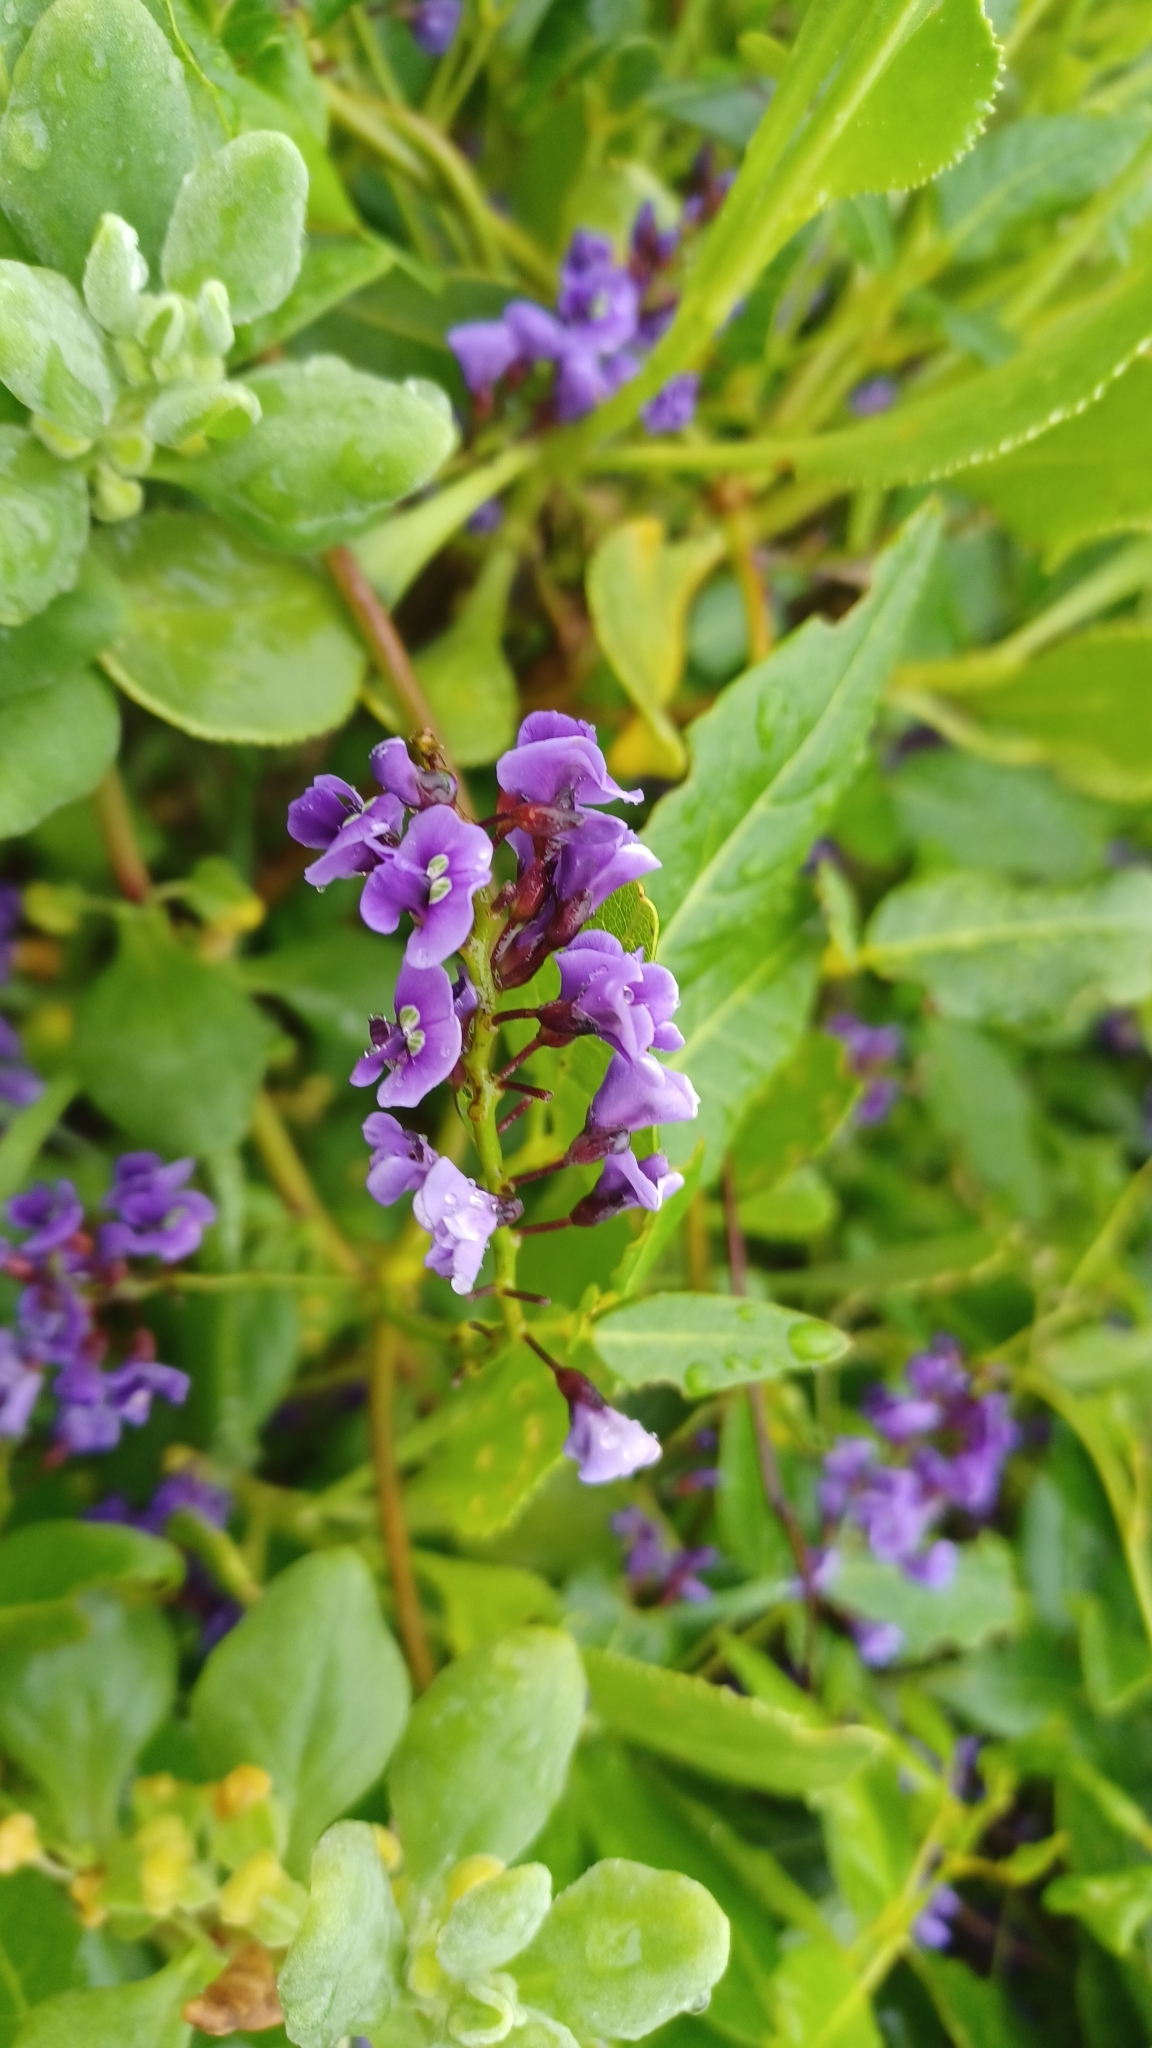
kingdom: Plantae
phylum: Tracheophyta
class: Magnoliopsida
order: Fabales
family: Fabaceae
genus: Hardenbergia
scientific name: Hardenbergia comptoniana
